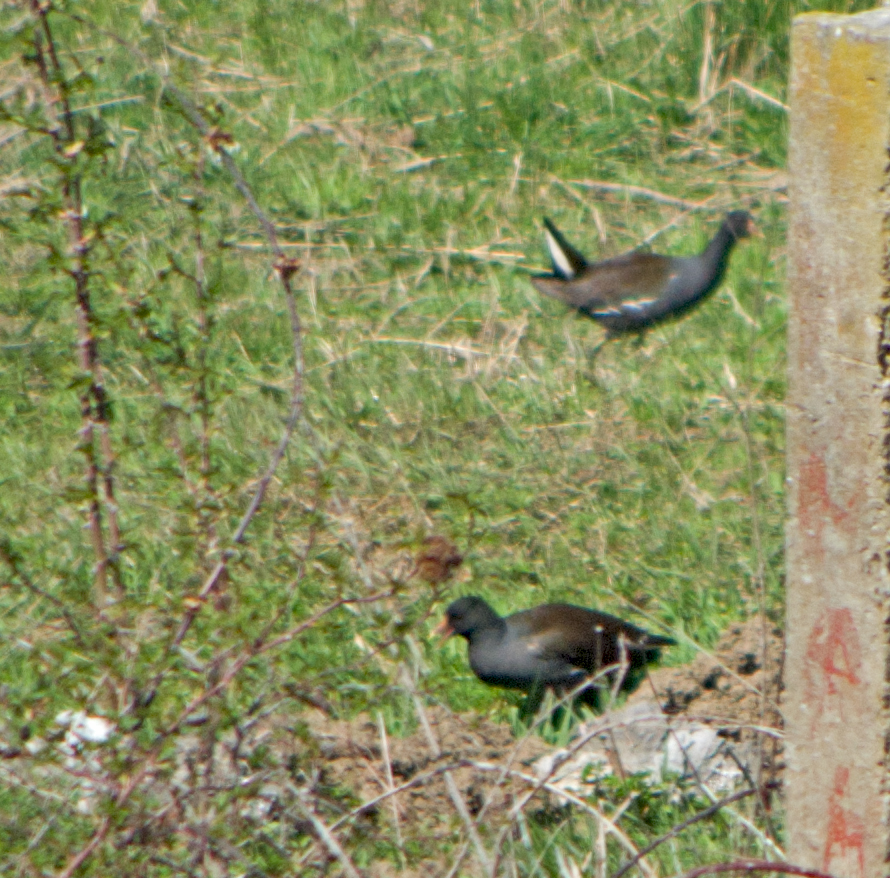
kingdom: Animalia
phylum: Chordata
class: Aves
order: Gruiformes
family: Rallidae
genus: Gallinula
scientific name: Gallinula chloropus
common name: Common moorhen
